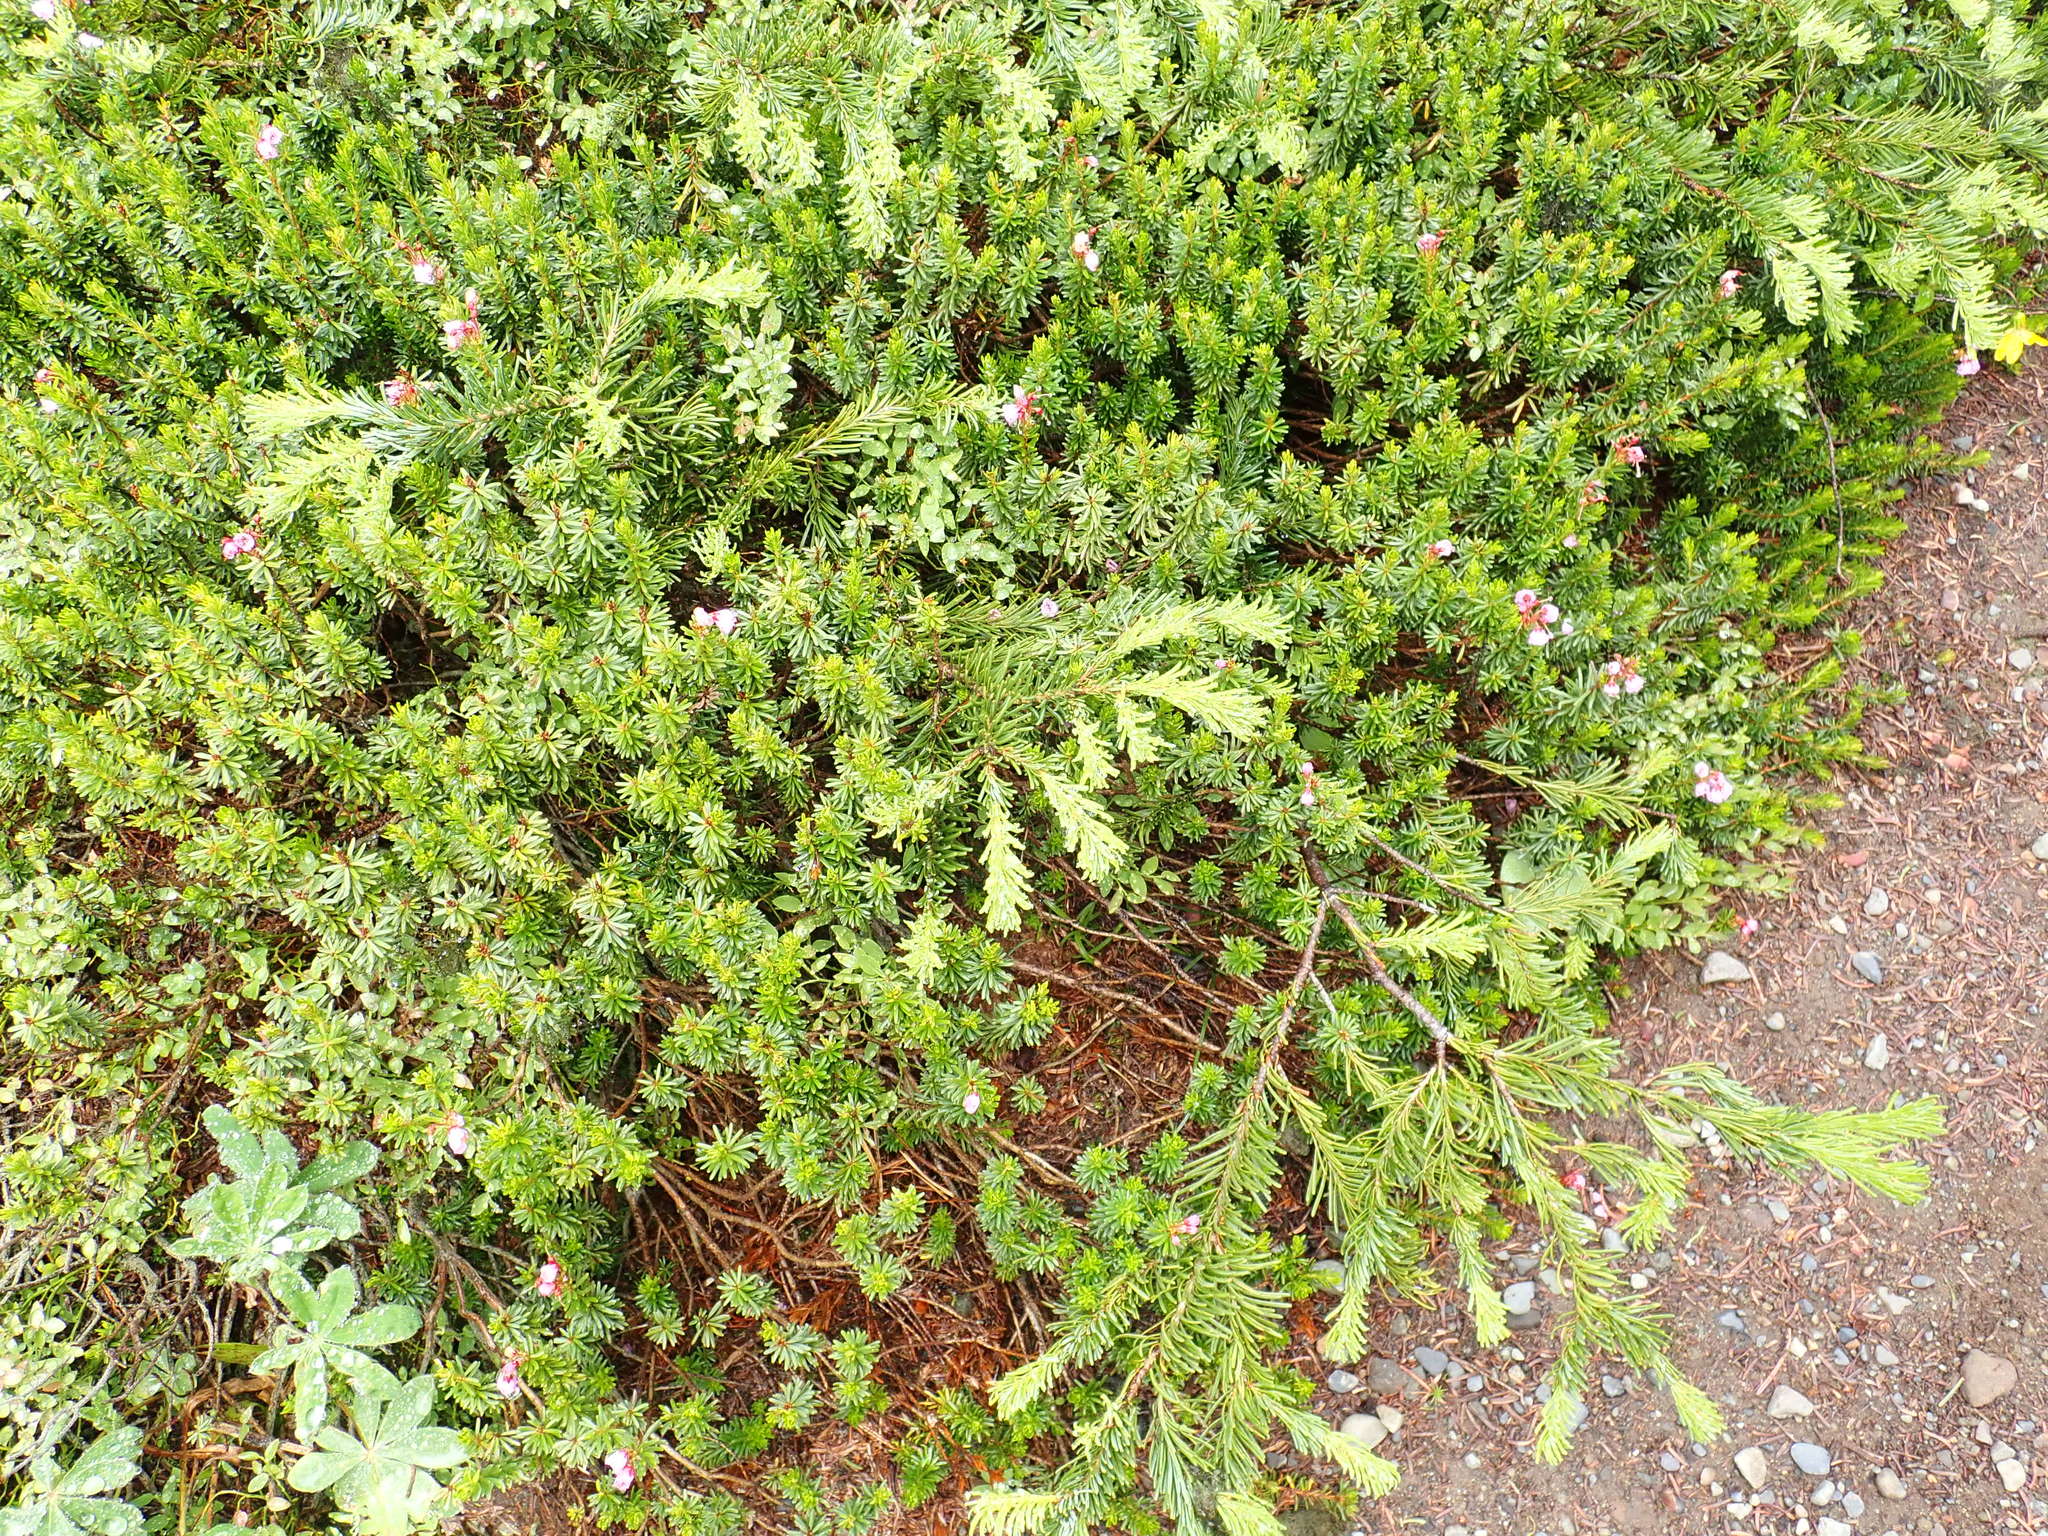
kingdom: Plantae
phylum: Tracheophyta
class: Magnoliopsida
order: Ericales
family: Ericaceae
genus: Phyllodoce
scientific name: Phyllodoce empetriformis
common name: Pink mountain heather
